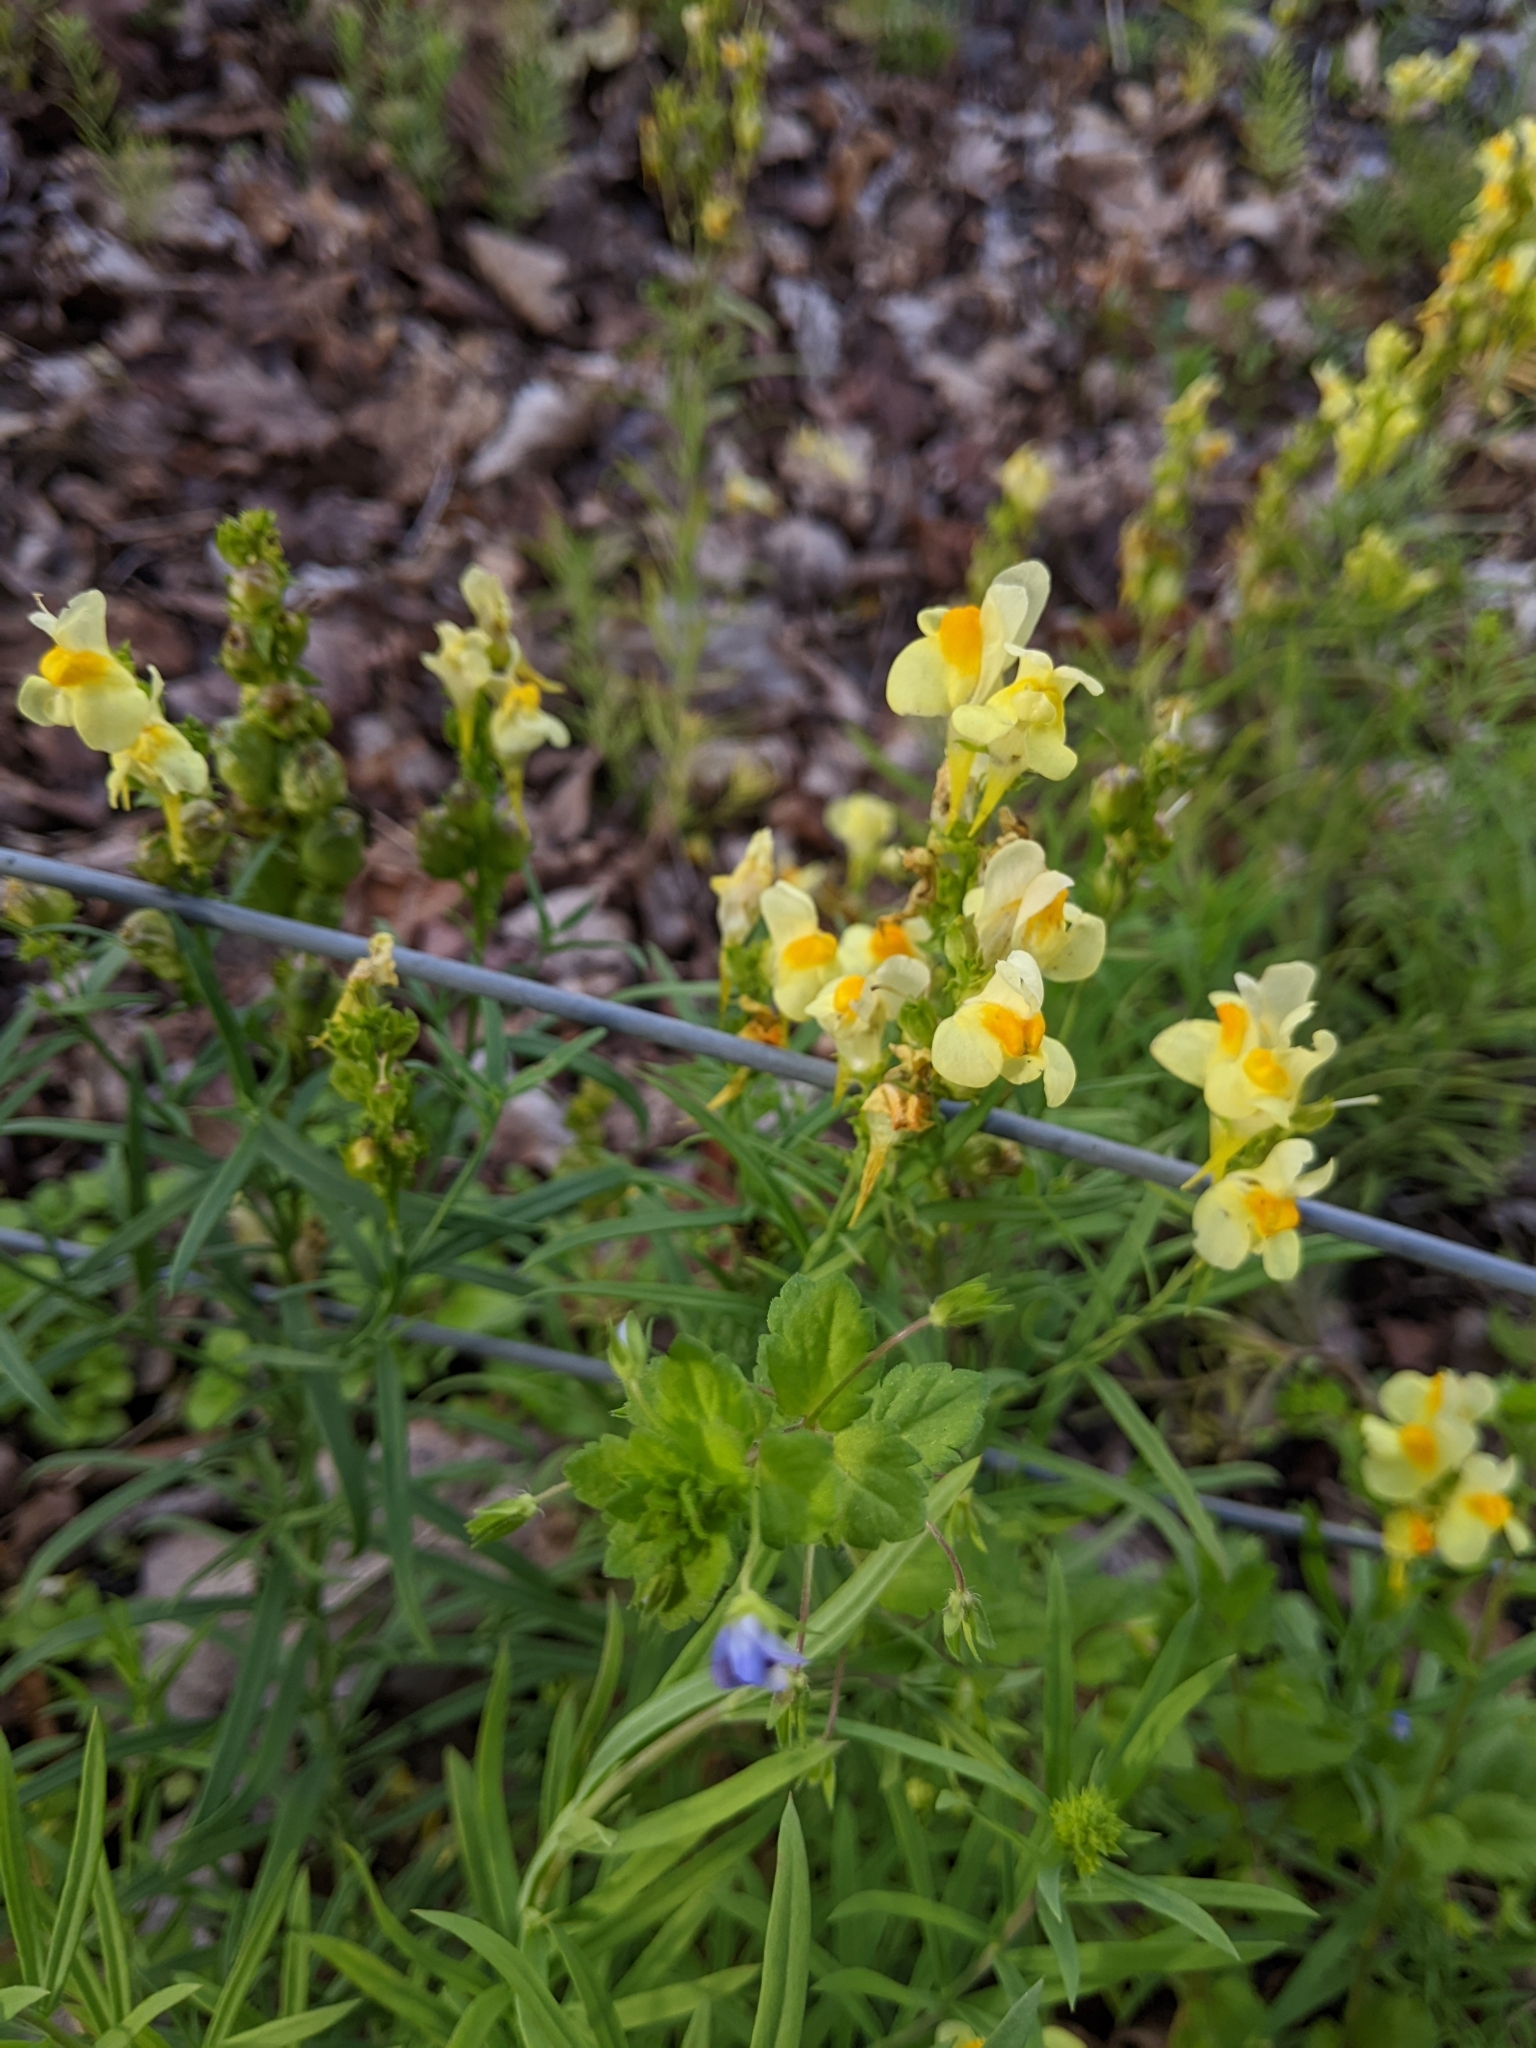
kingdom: Plantae
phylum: Tracheophyta
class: Magnoliopsida
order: Lamiales
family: Plantaginaceae
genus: Linaria
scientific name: Linaria vulgaris
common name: Butter and eggs
